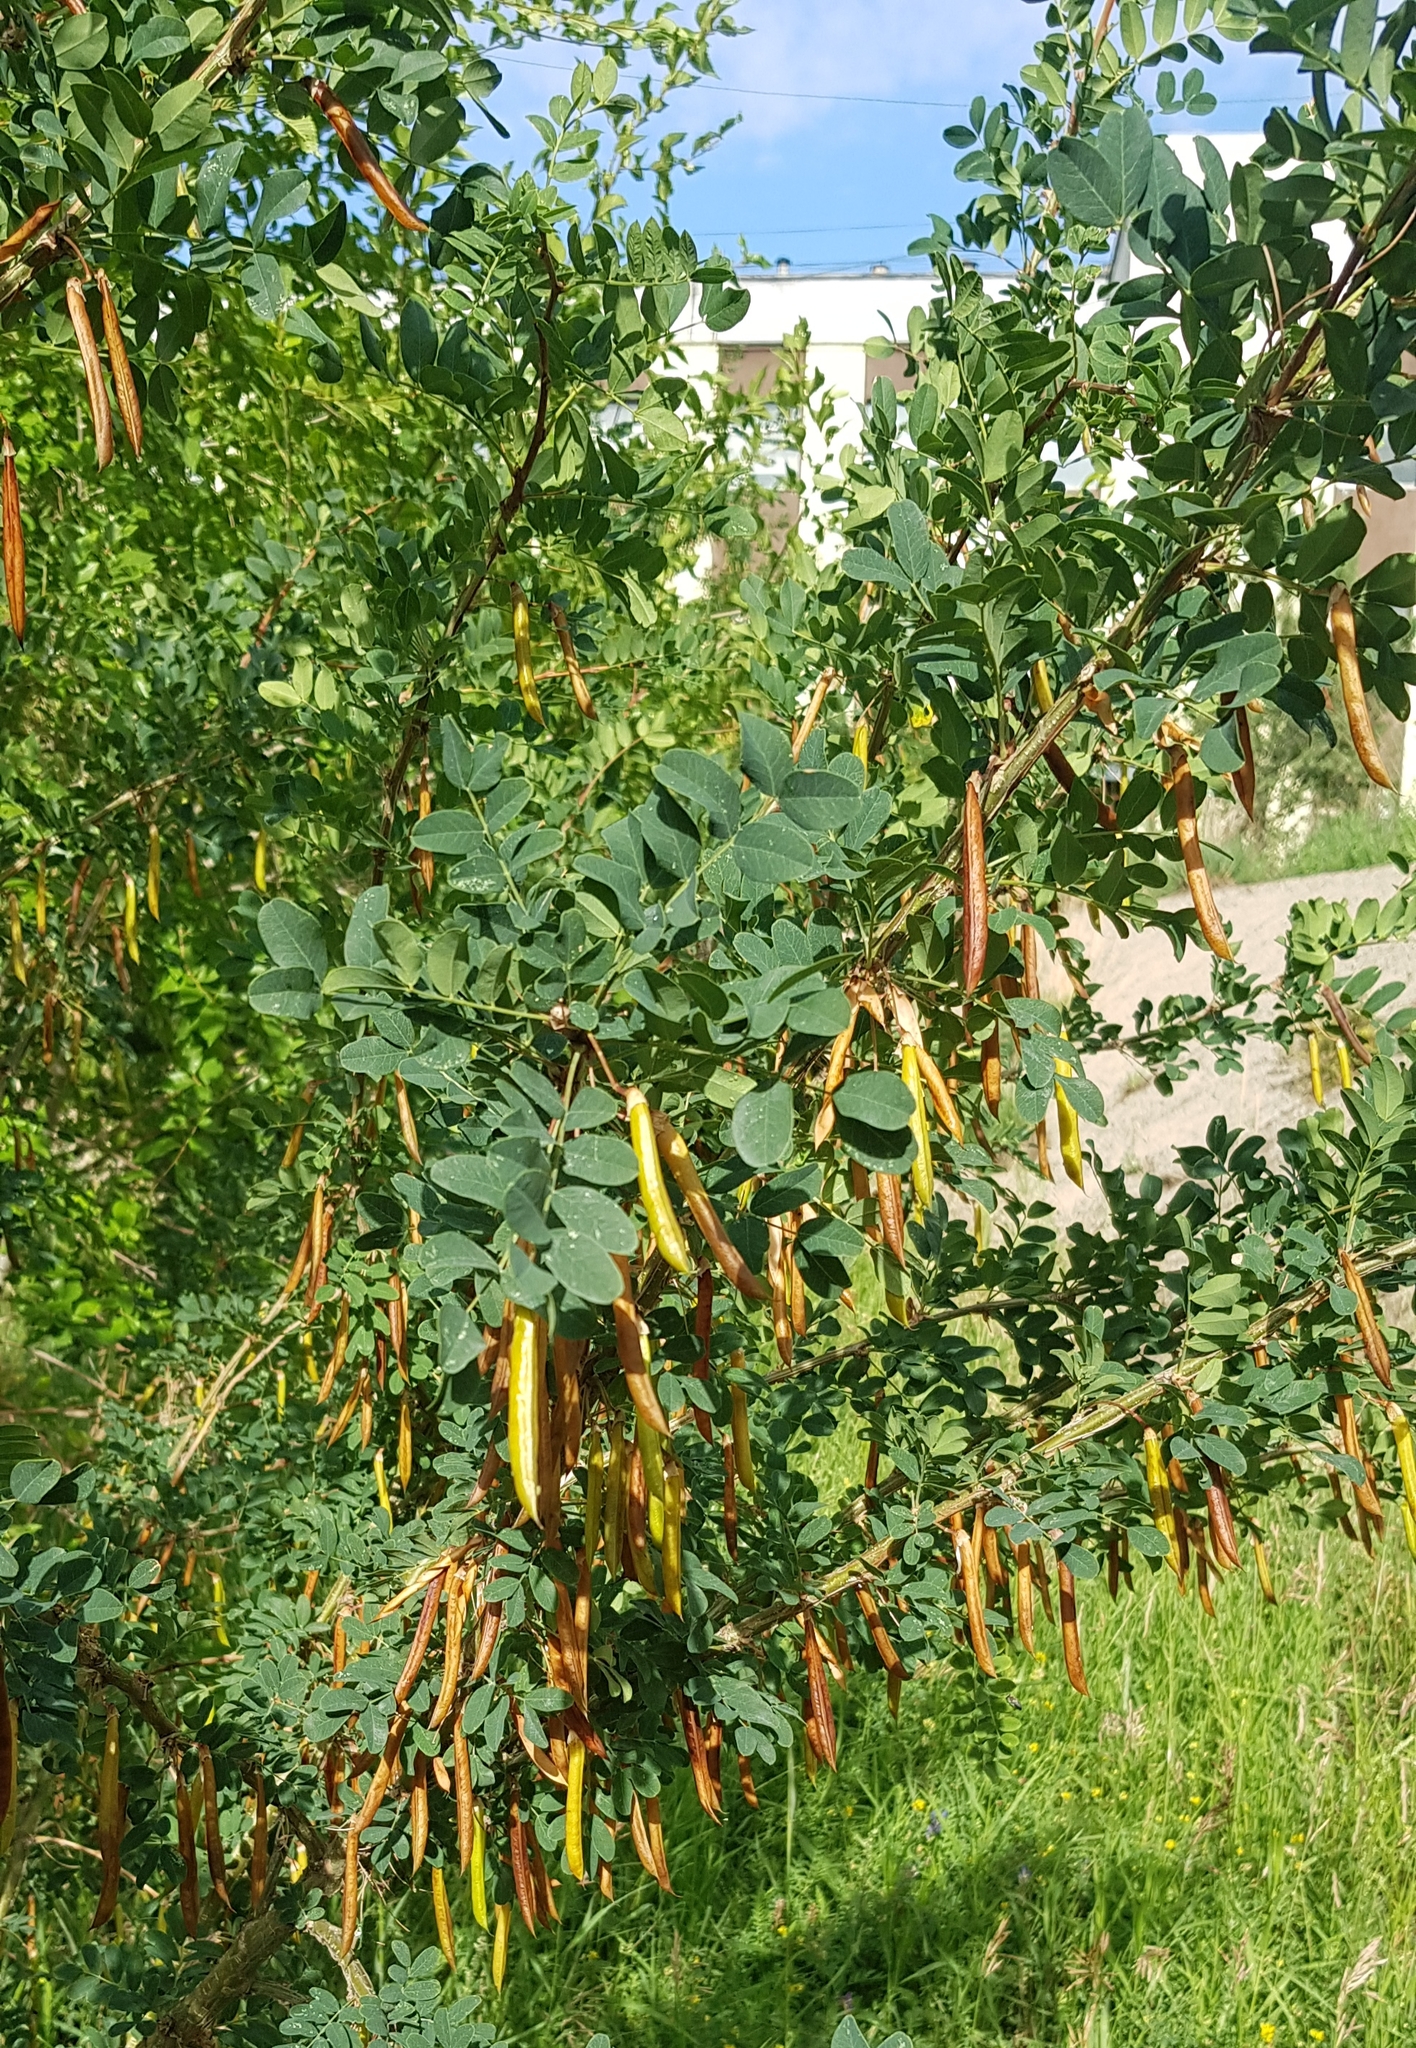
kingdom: Plantae
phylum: Tracheophyta
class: Magnoliopsida
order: Fabales
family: Fabaceae
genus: Caragana
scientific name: Caragana arborescens
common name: Siberian peashrub
